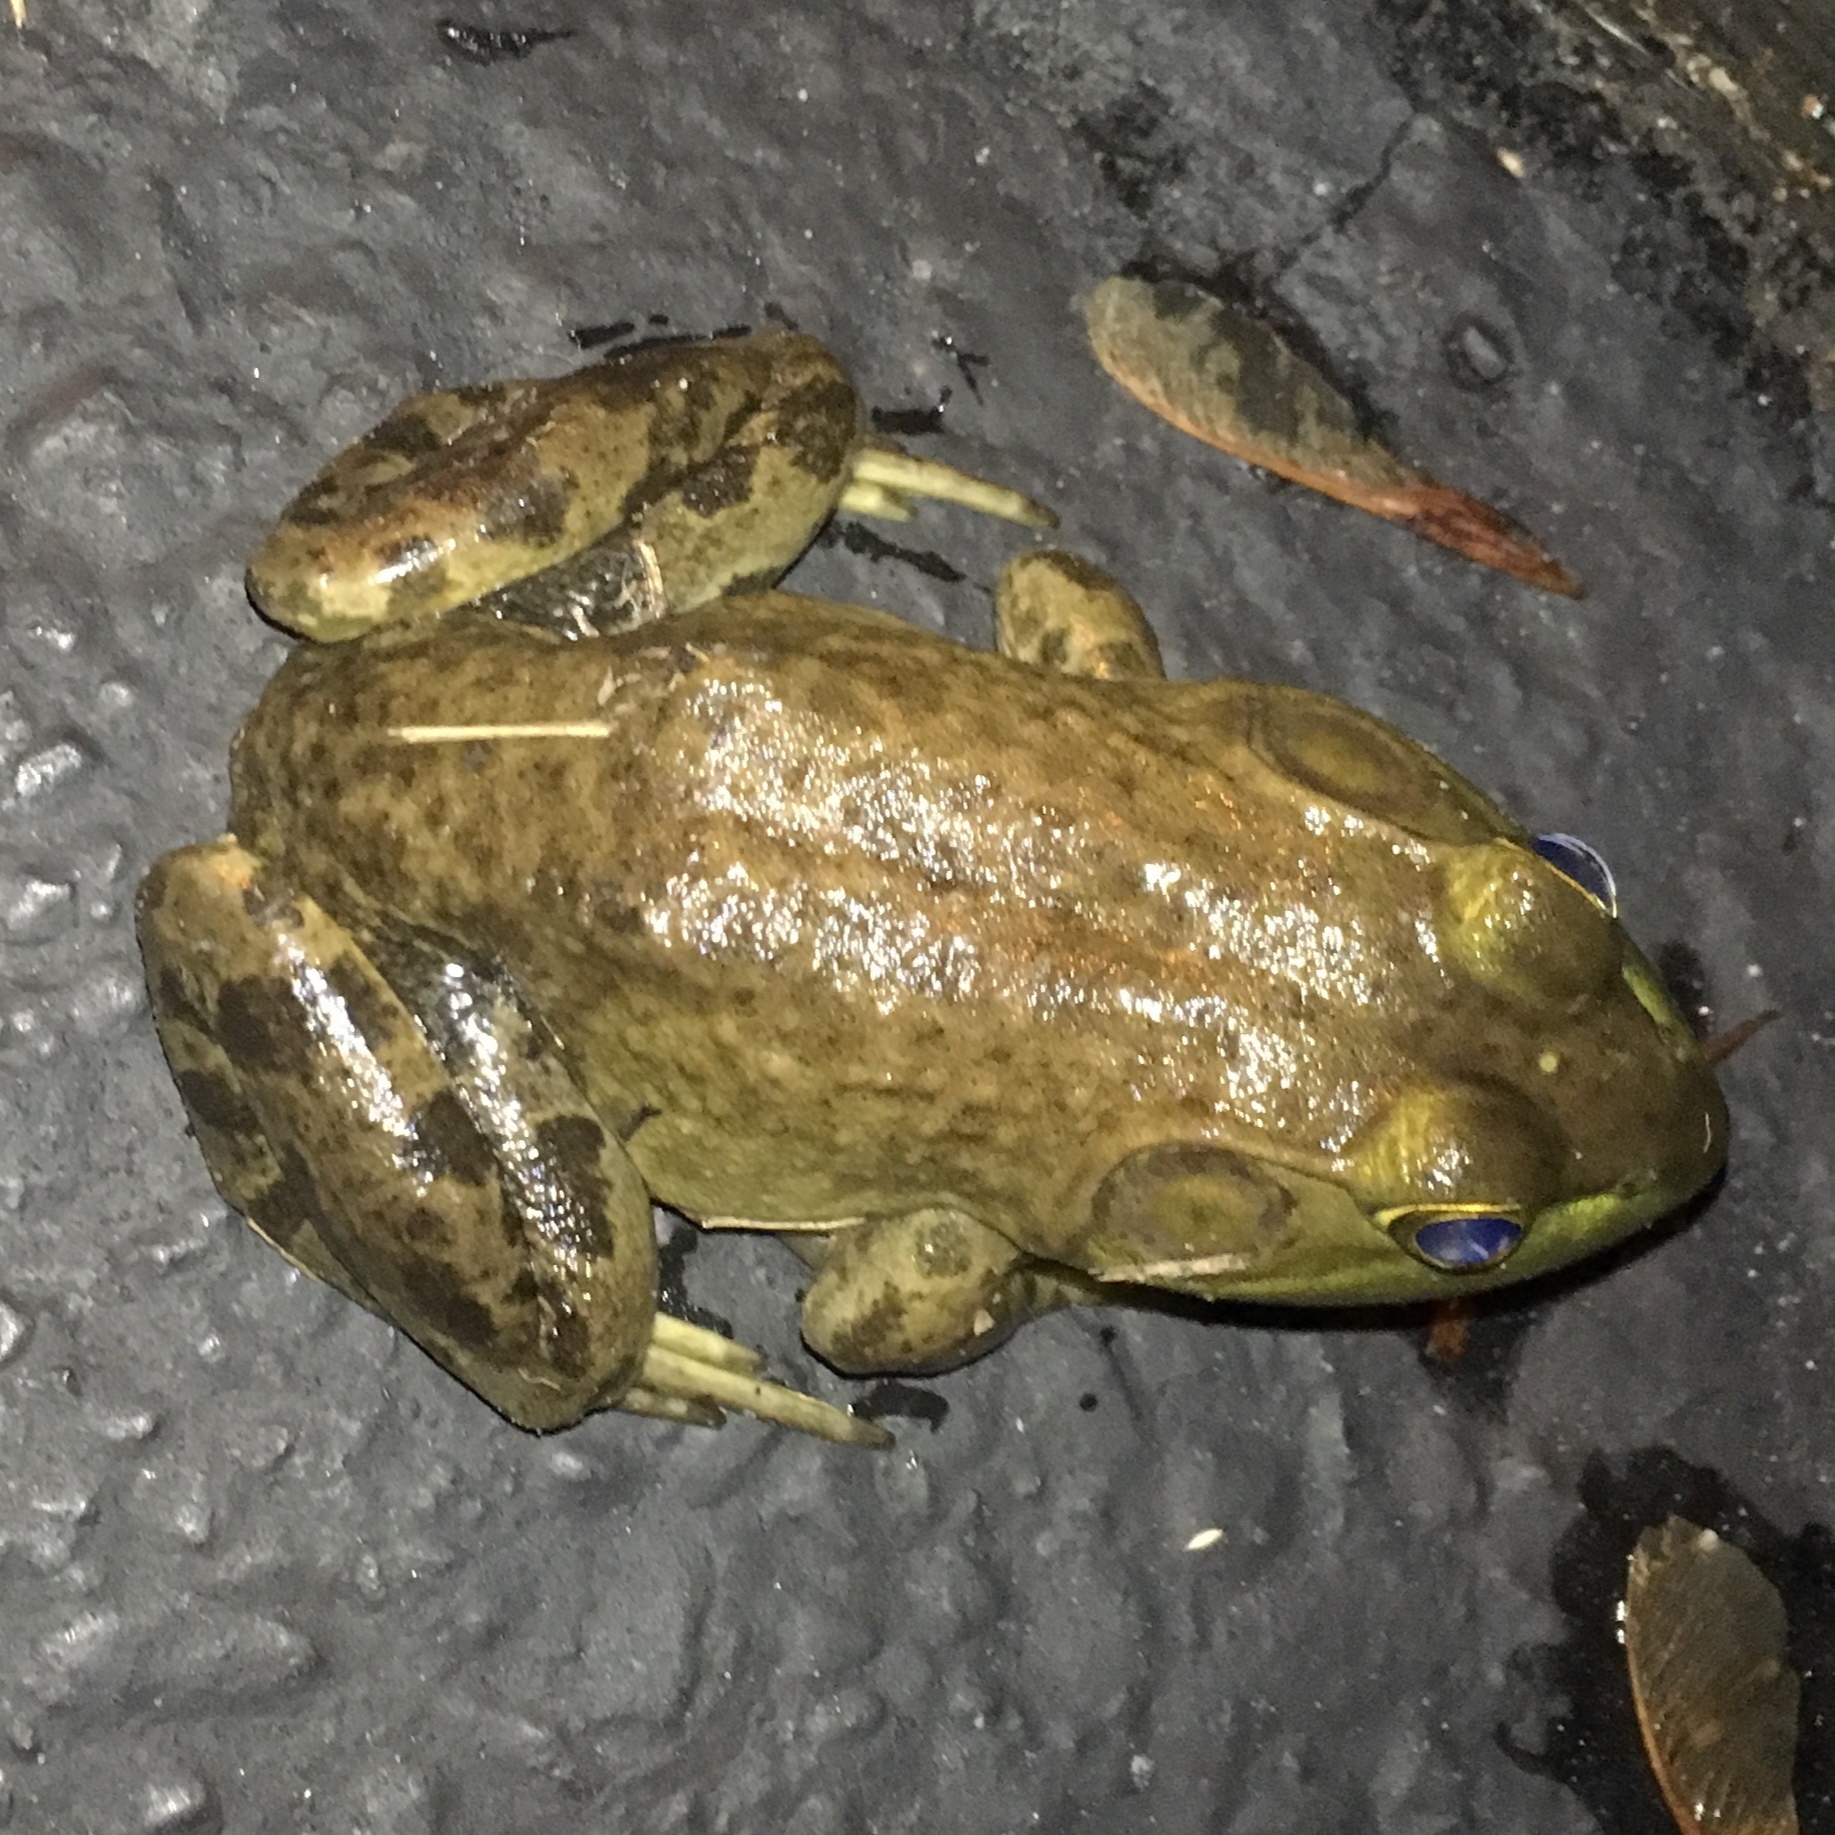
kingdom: Animalia
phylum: Chordata
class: Amphibia
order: Anura
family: Ranidae
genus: Lithobates
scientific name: Lithobates catesbeianus
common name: American bullfrog
